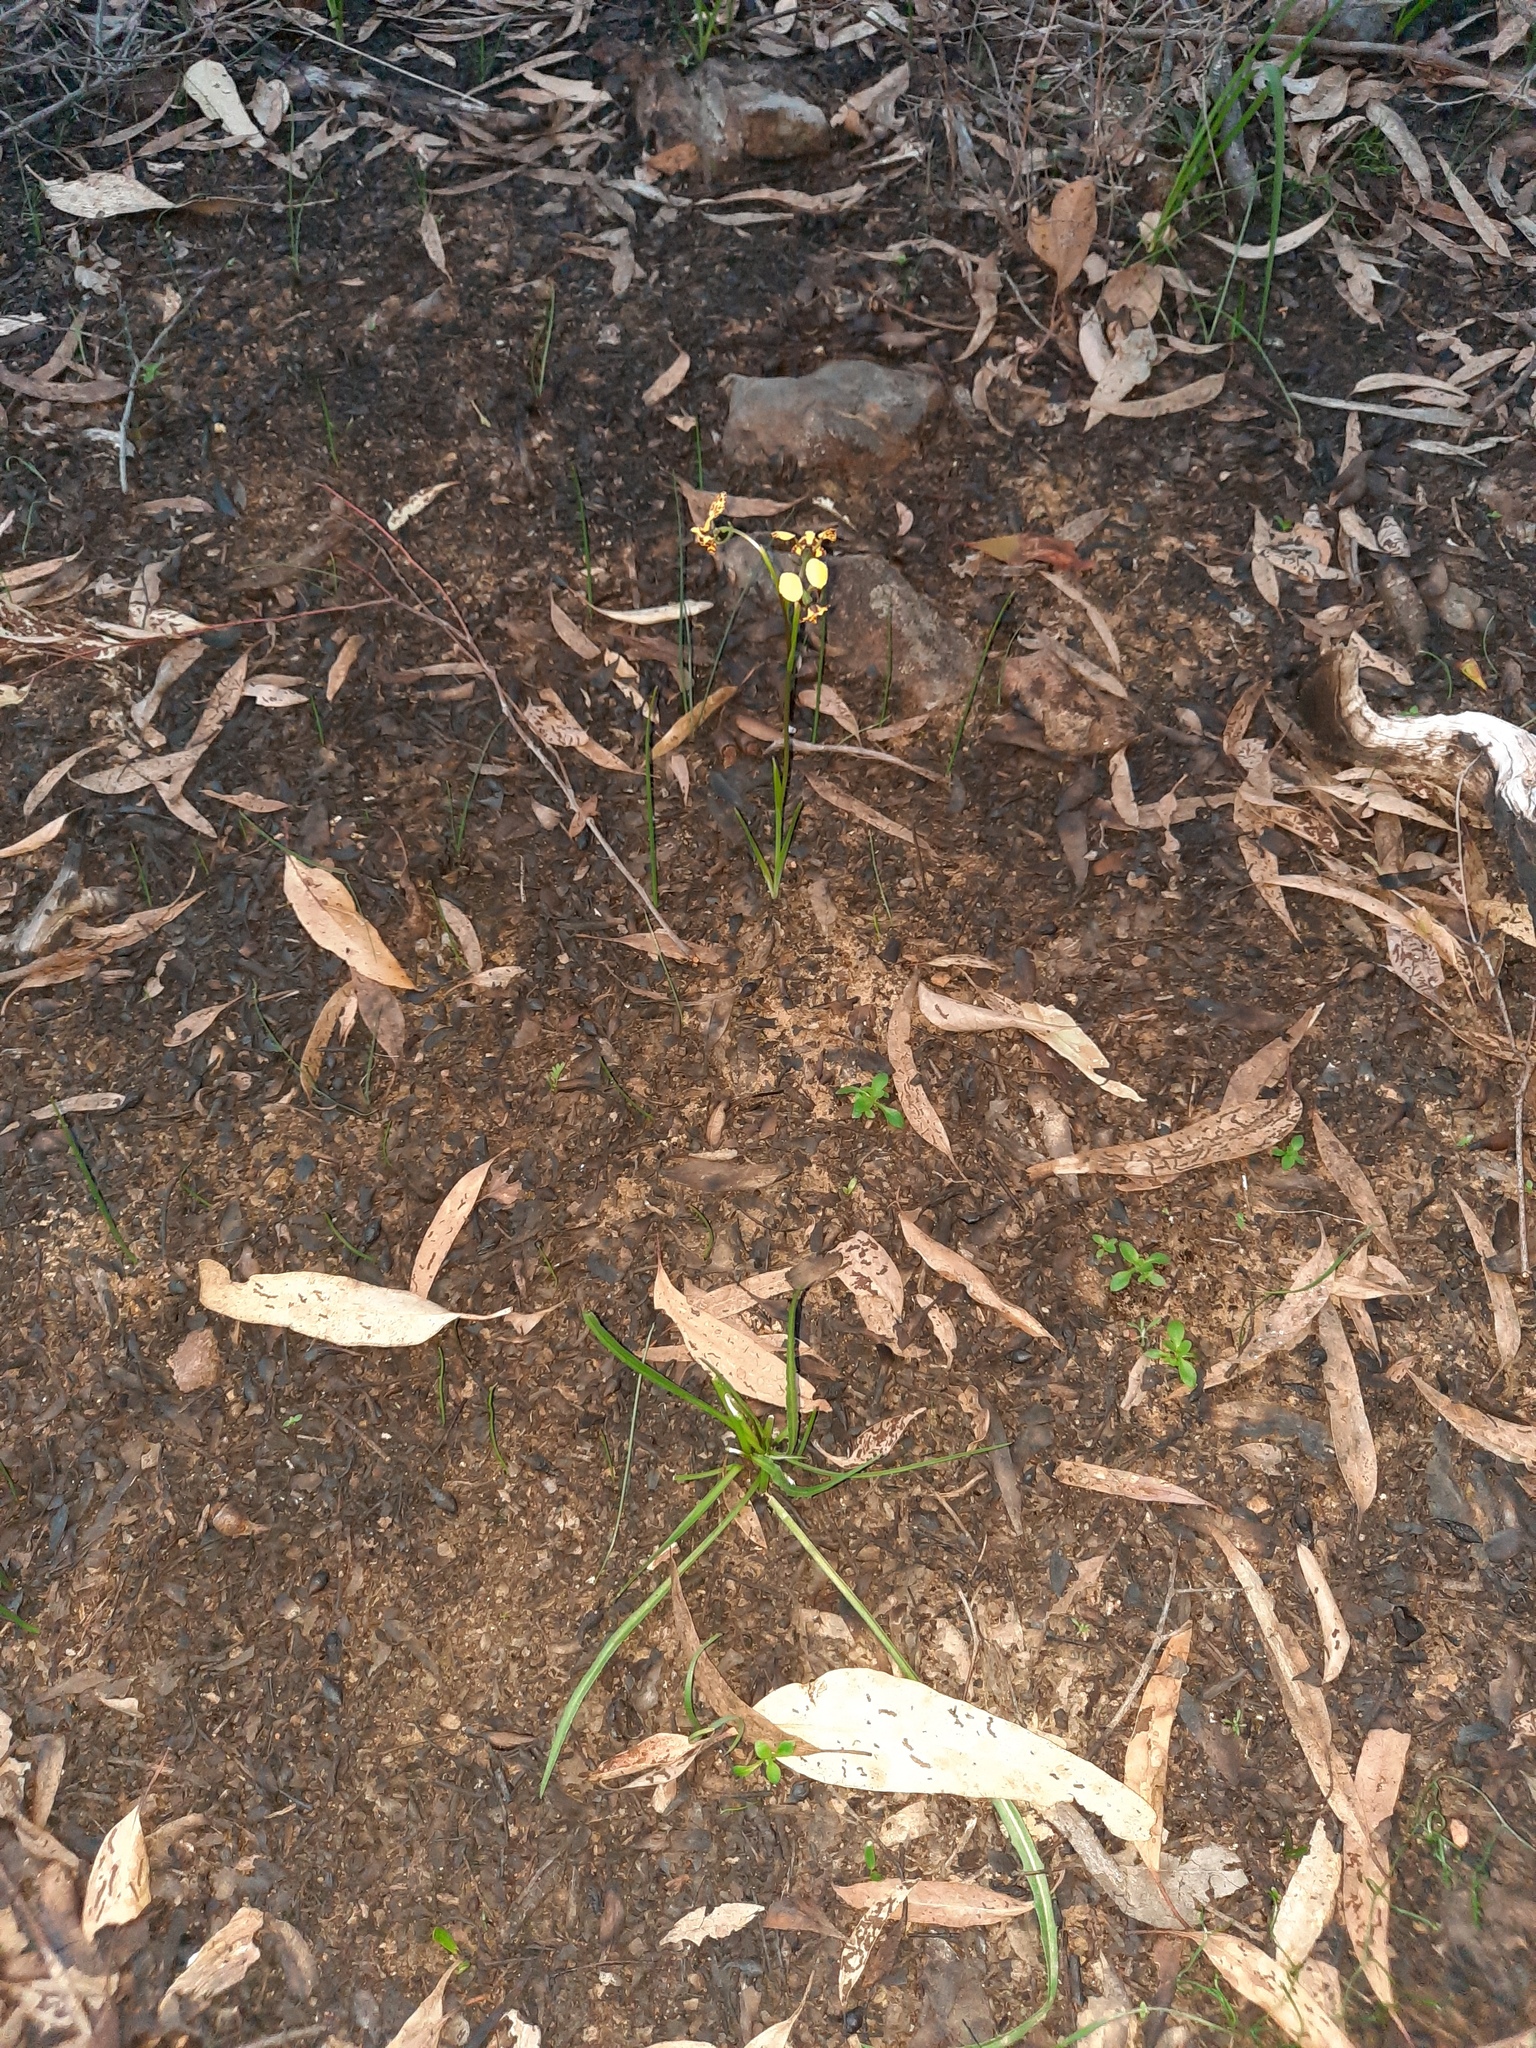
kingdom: Plantae
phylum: Tracheophyta
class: Liliopsida
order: Asparagales
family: Orchidaceae
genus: Diuris
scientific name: Diuris pardina
